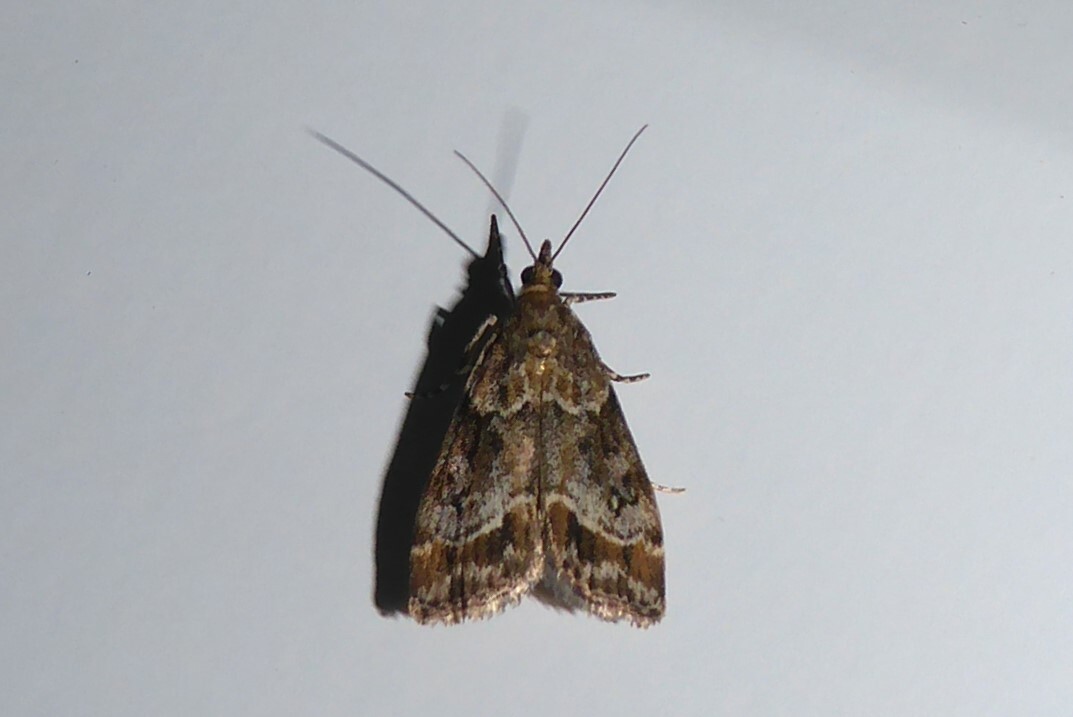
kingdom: Animalia
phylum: Arthropoda
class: Insecta
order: Lepidoptera
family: Crambidae
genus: Eudonia
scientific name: Eudonia legnota
